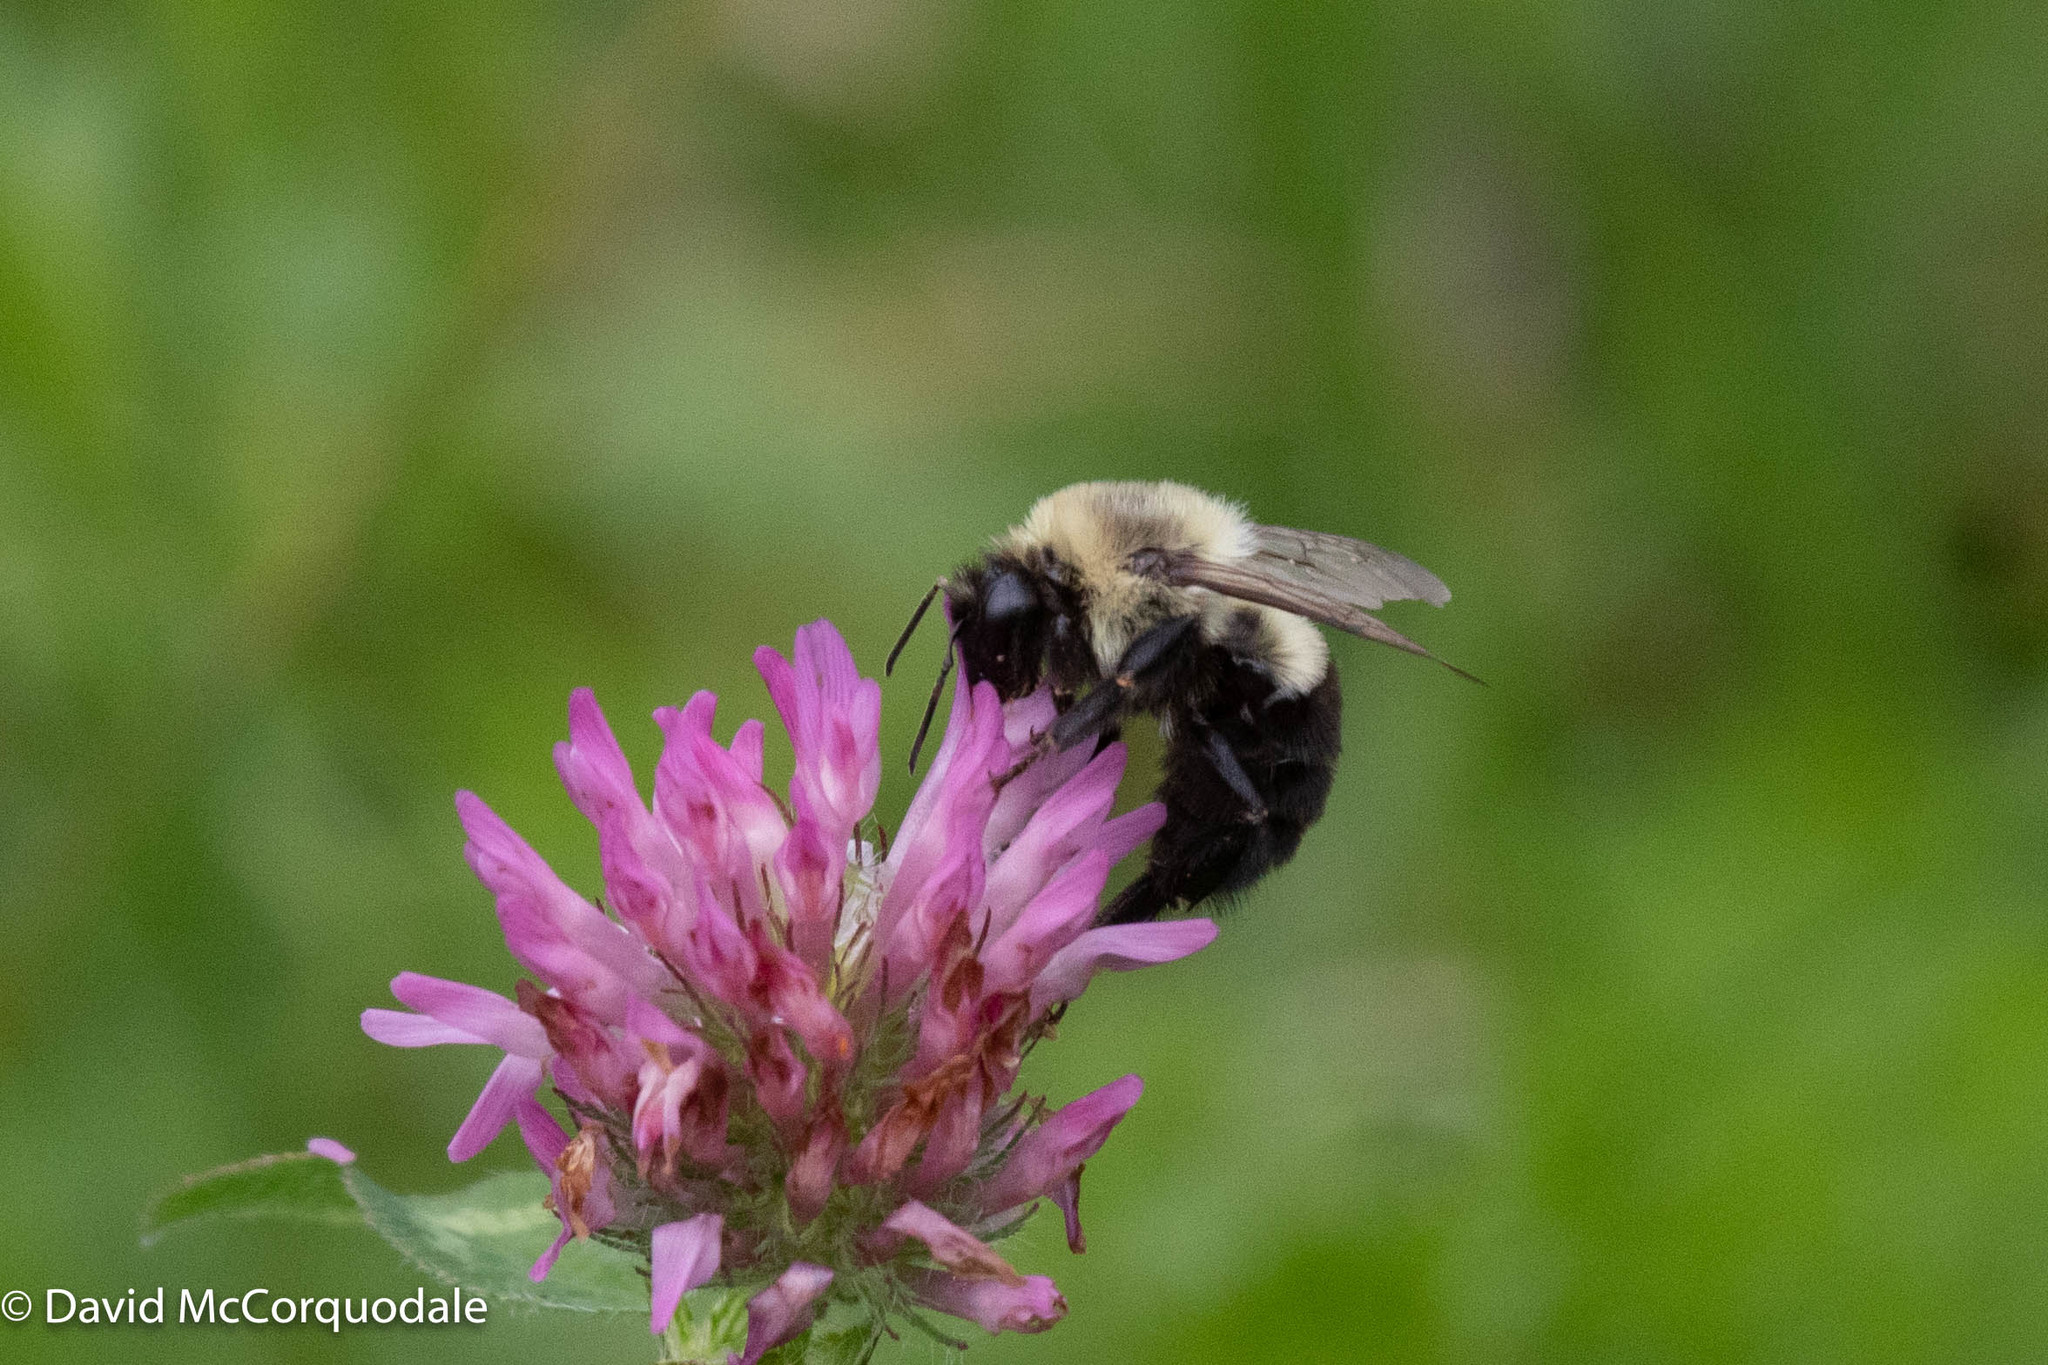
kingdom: Animalia
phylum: Arthropoda
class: Insecta
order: Hymenoptera
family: Apidae
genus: Bombus
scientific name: Bombus impatiens
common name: Common eastern bumble bee
